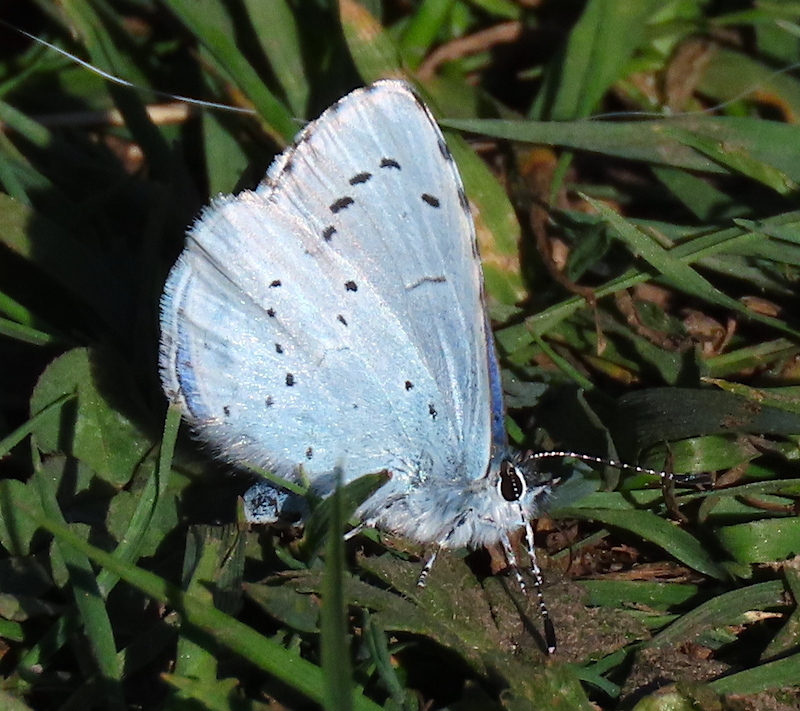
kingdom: Animalia
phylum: Arthropoda
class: Insecta
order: Lepidoptera
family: Lycaenidae
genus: Celastrina
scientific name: Celastrina argiolus
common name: Holly blue
